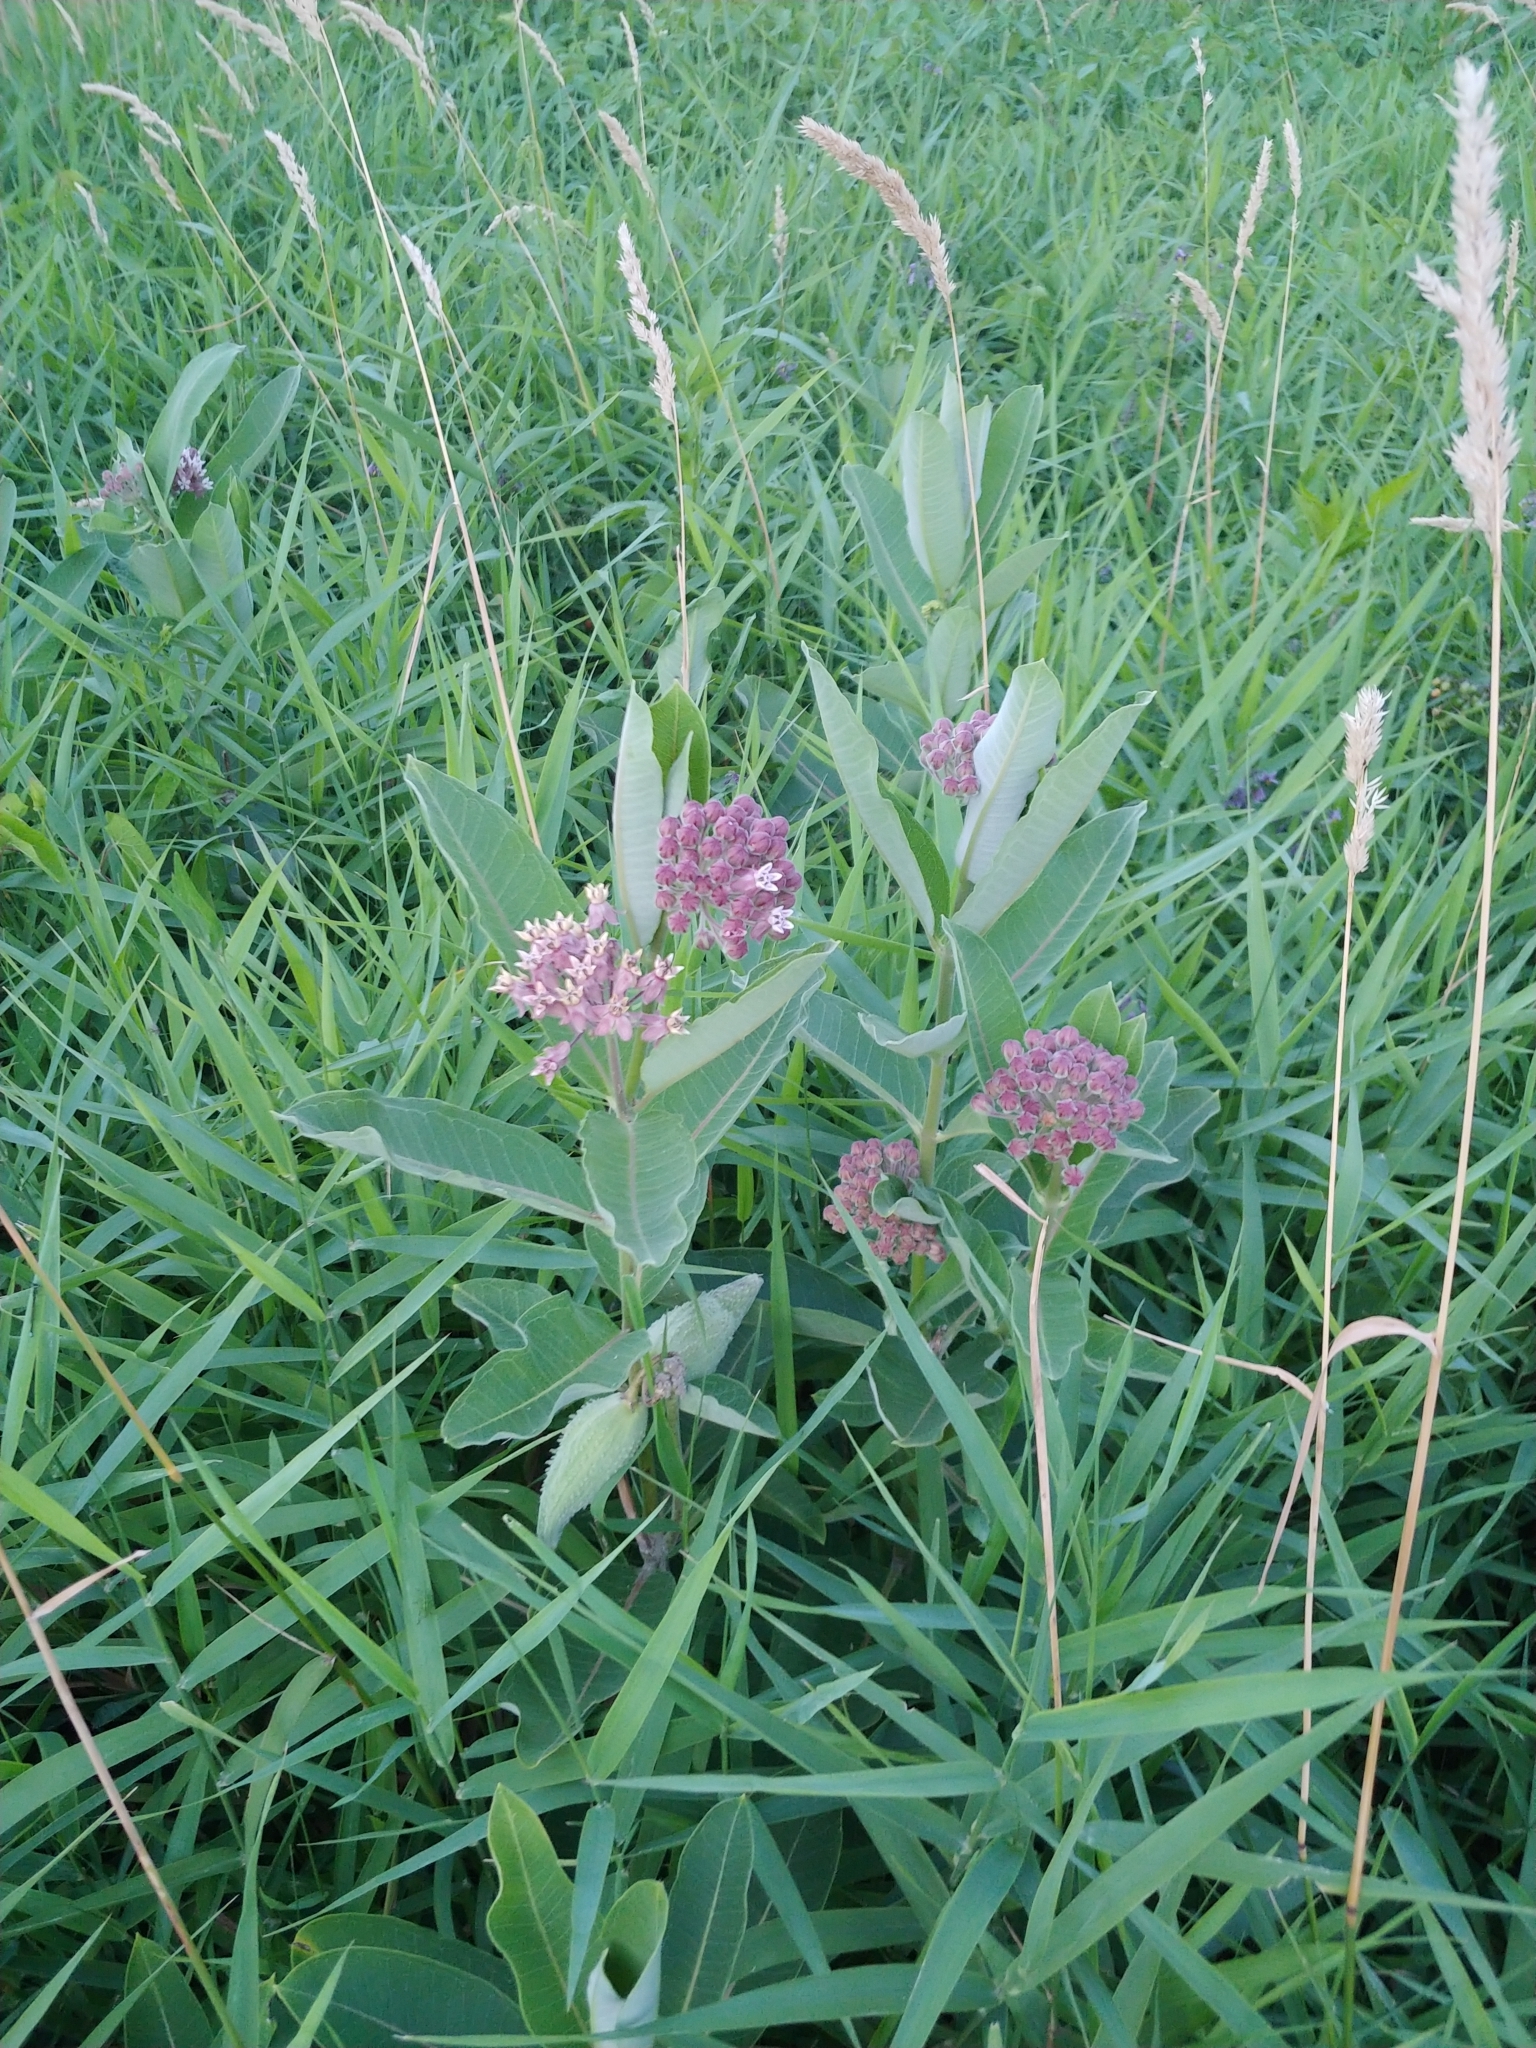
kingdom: Plantae
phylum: Tracheophyta
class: Magnoliopsida
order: Gentianales
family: Apocynaceae
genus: Asclepias
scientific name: Asclepias syriaca
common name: Common milkweed
